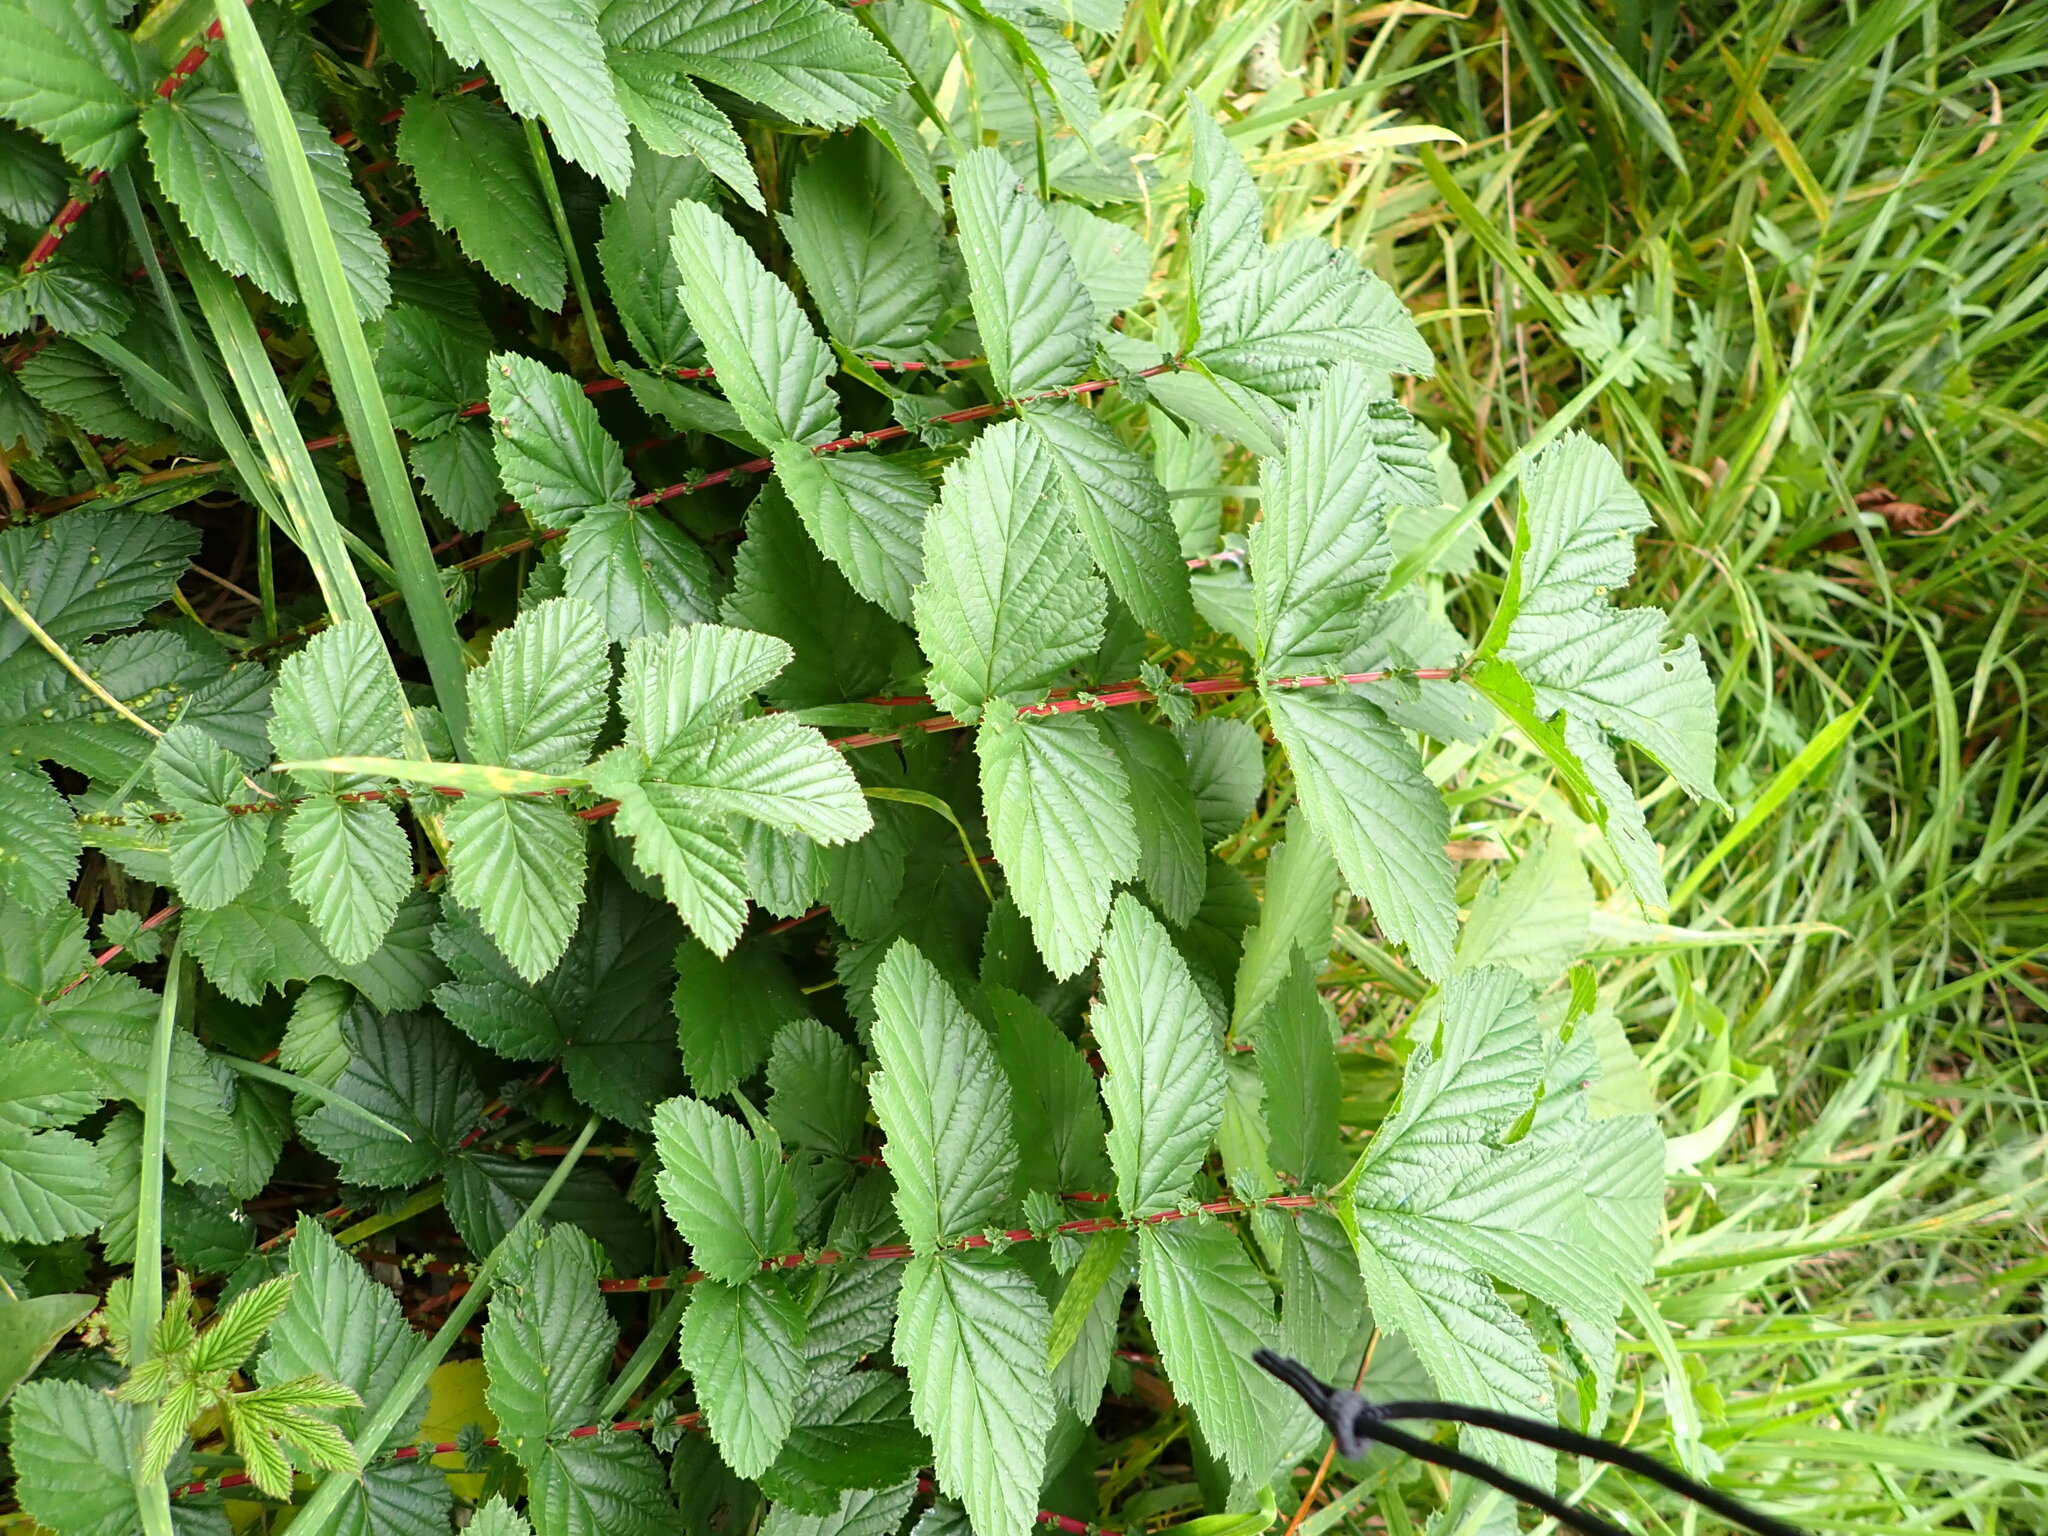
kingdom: Plantae
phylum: Tracheophyta
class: Magnoliopsida
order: Rosales
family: Rosaceae
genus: Filipendula
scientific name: Filipendula ulmaria
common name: Meadowsweet
